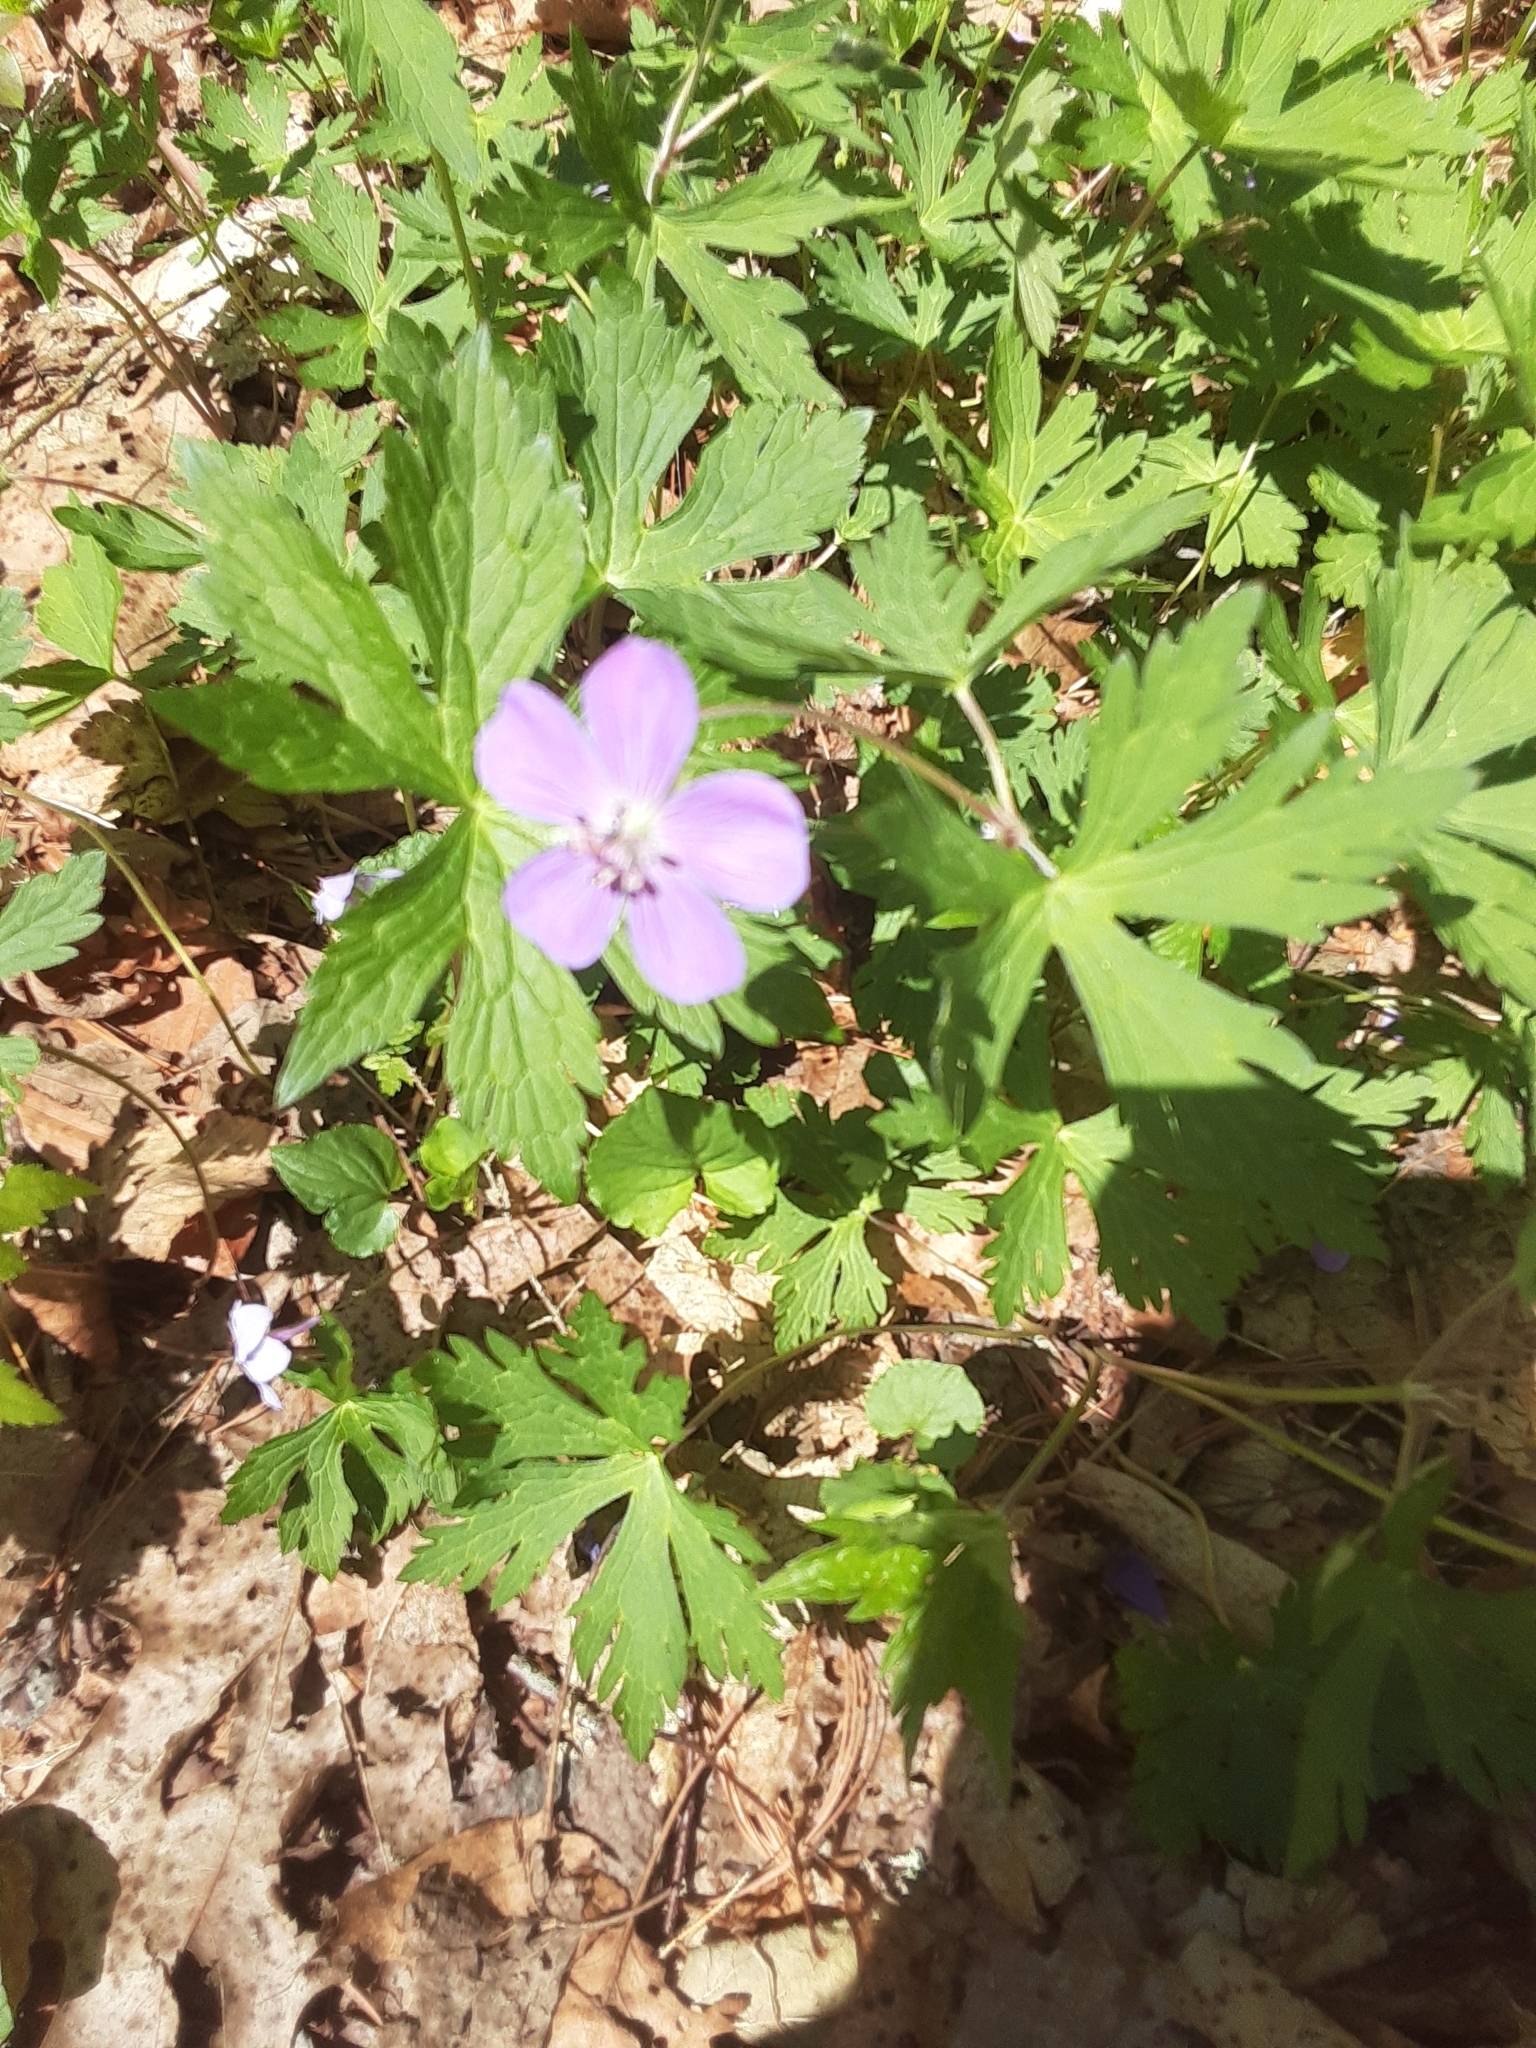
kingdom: Plantae
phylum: Tracheophyta
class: Magnoliopsida
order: Geraniales
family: Geraniaceae
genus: Geranium
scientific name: Geranium maculatum
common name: Spotted geranium
